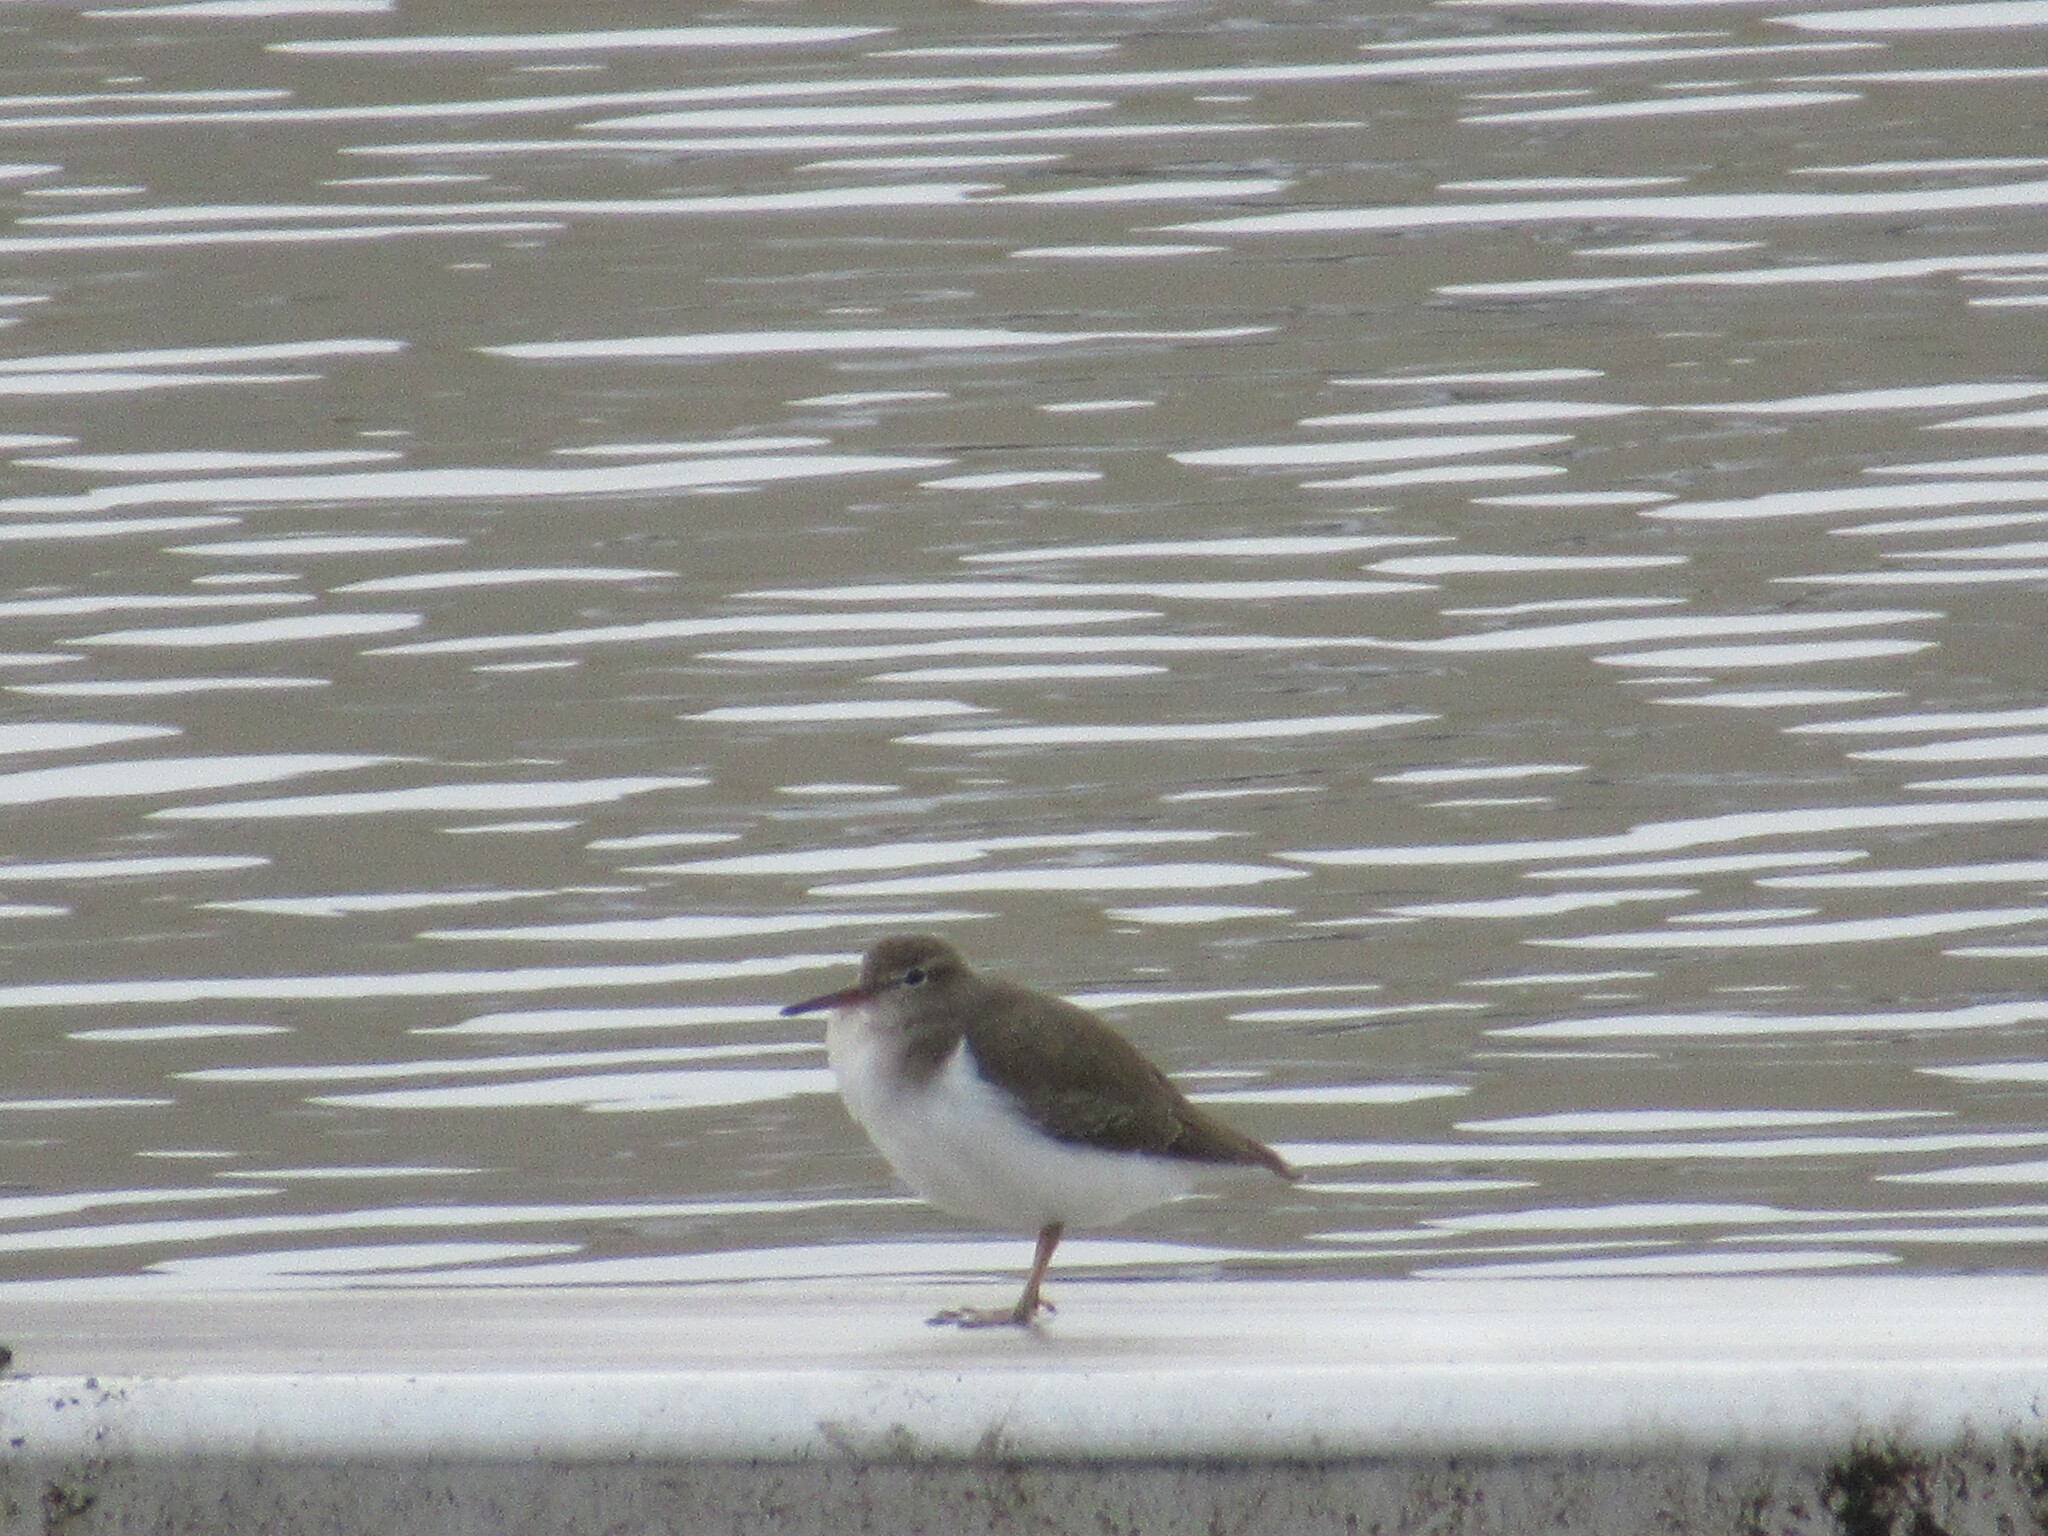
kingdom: Animalia
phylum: Chordata
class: Aves
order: Charadriiformes
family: Scolopacidae
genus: Actitis
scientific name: Actitis macularius
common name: Spotted sandpiper
